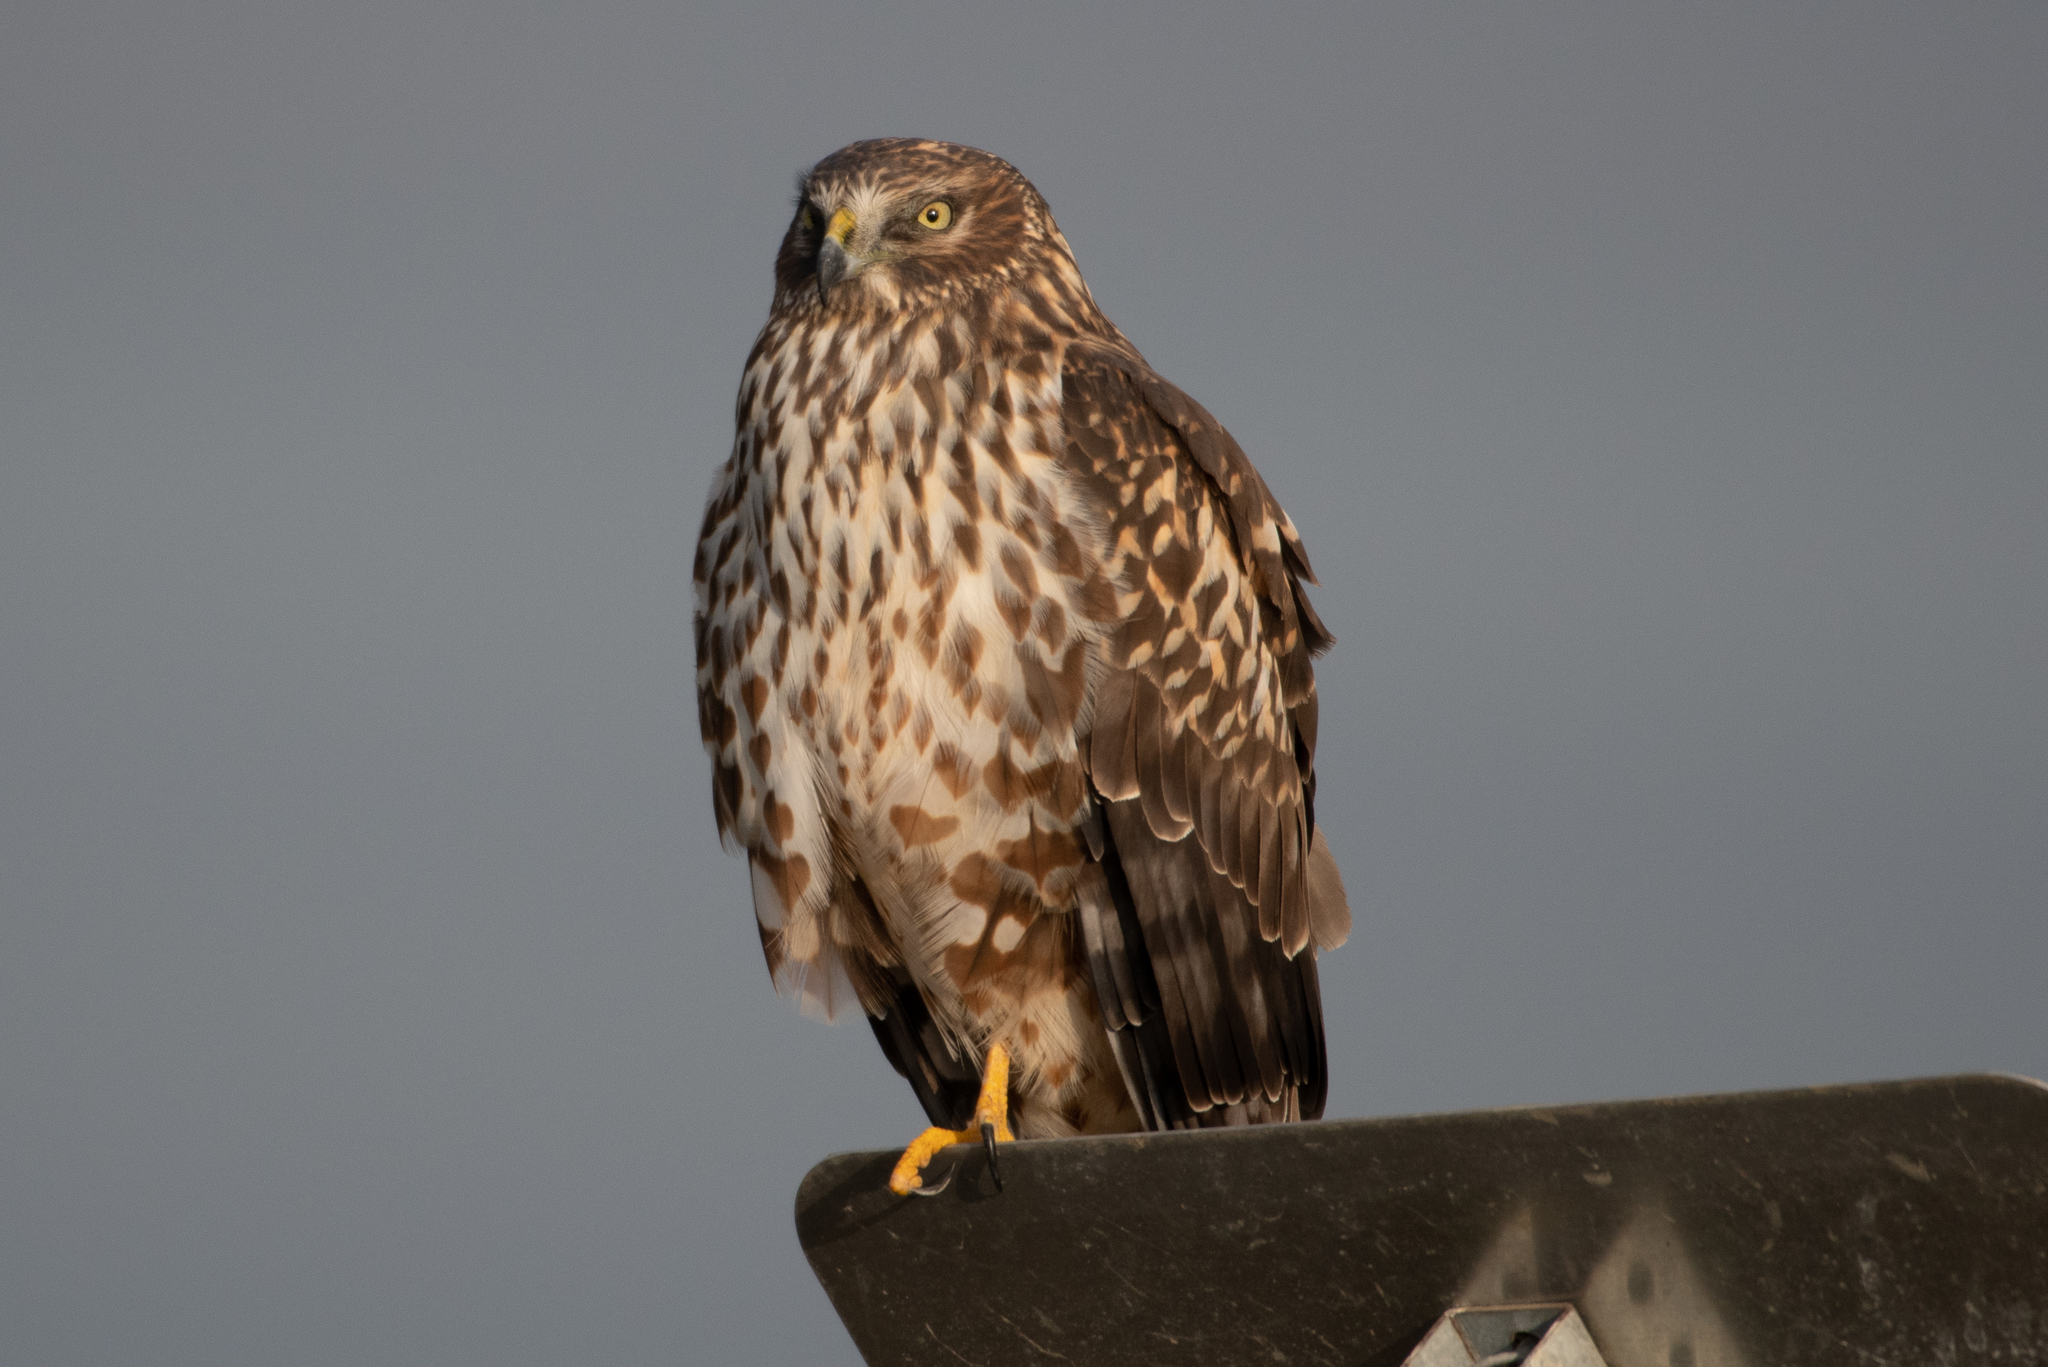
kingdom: Animalia
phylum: Chordata
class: Aves
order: Accipitriformes
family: Accipitridae
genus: Circus
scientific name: Circus cyaneus
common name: Hen harrier
